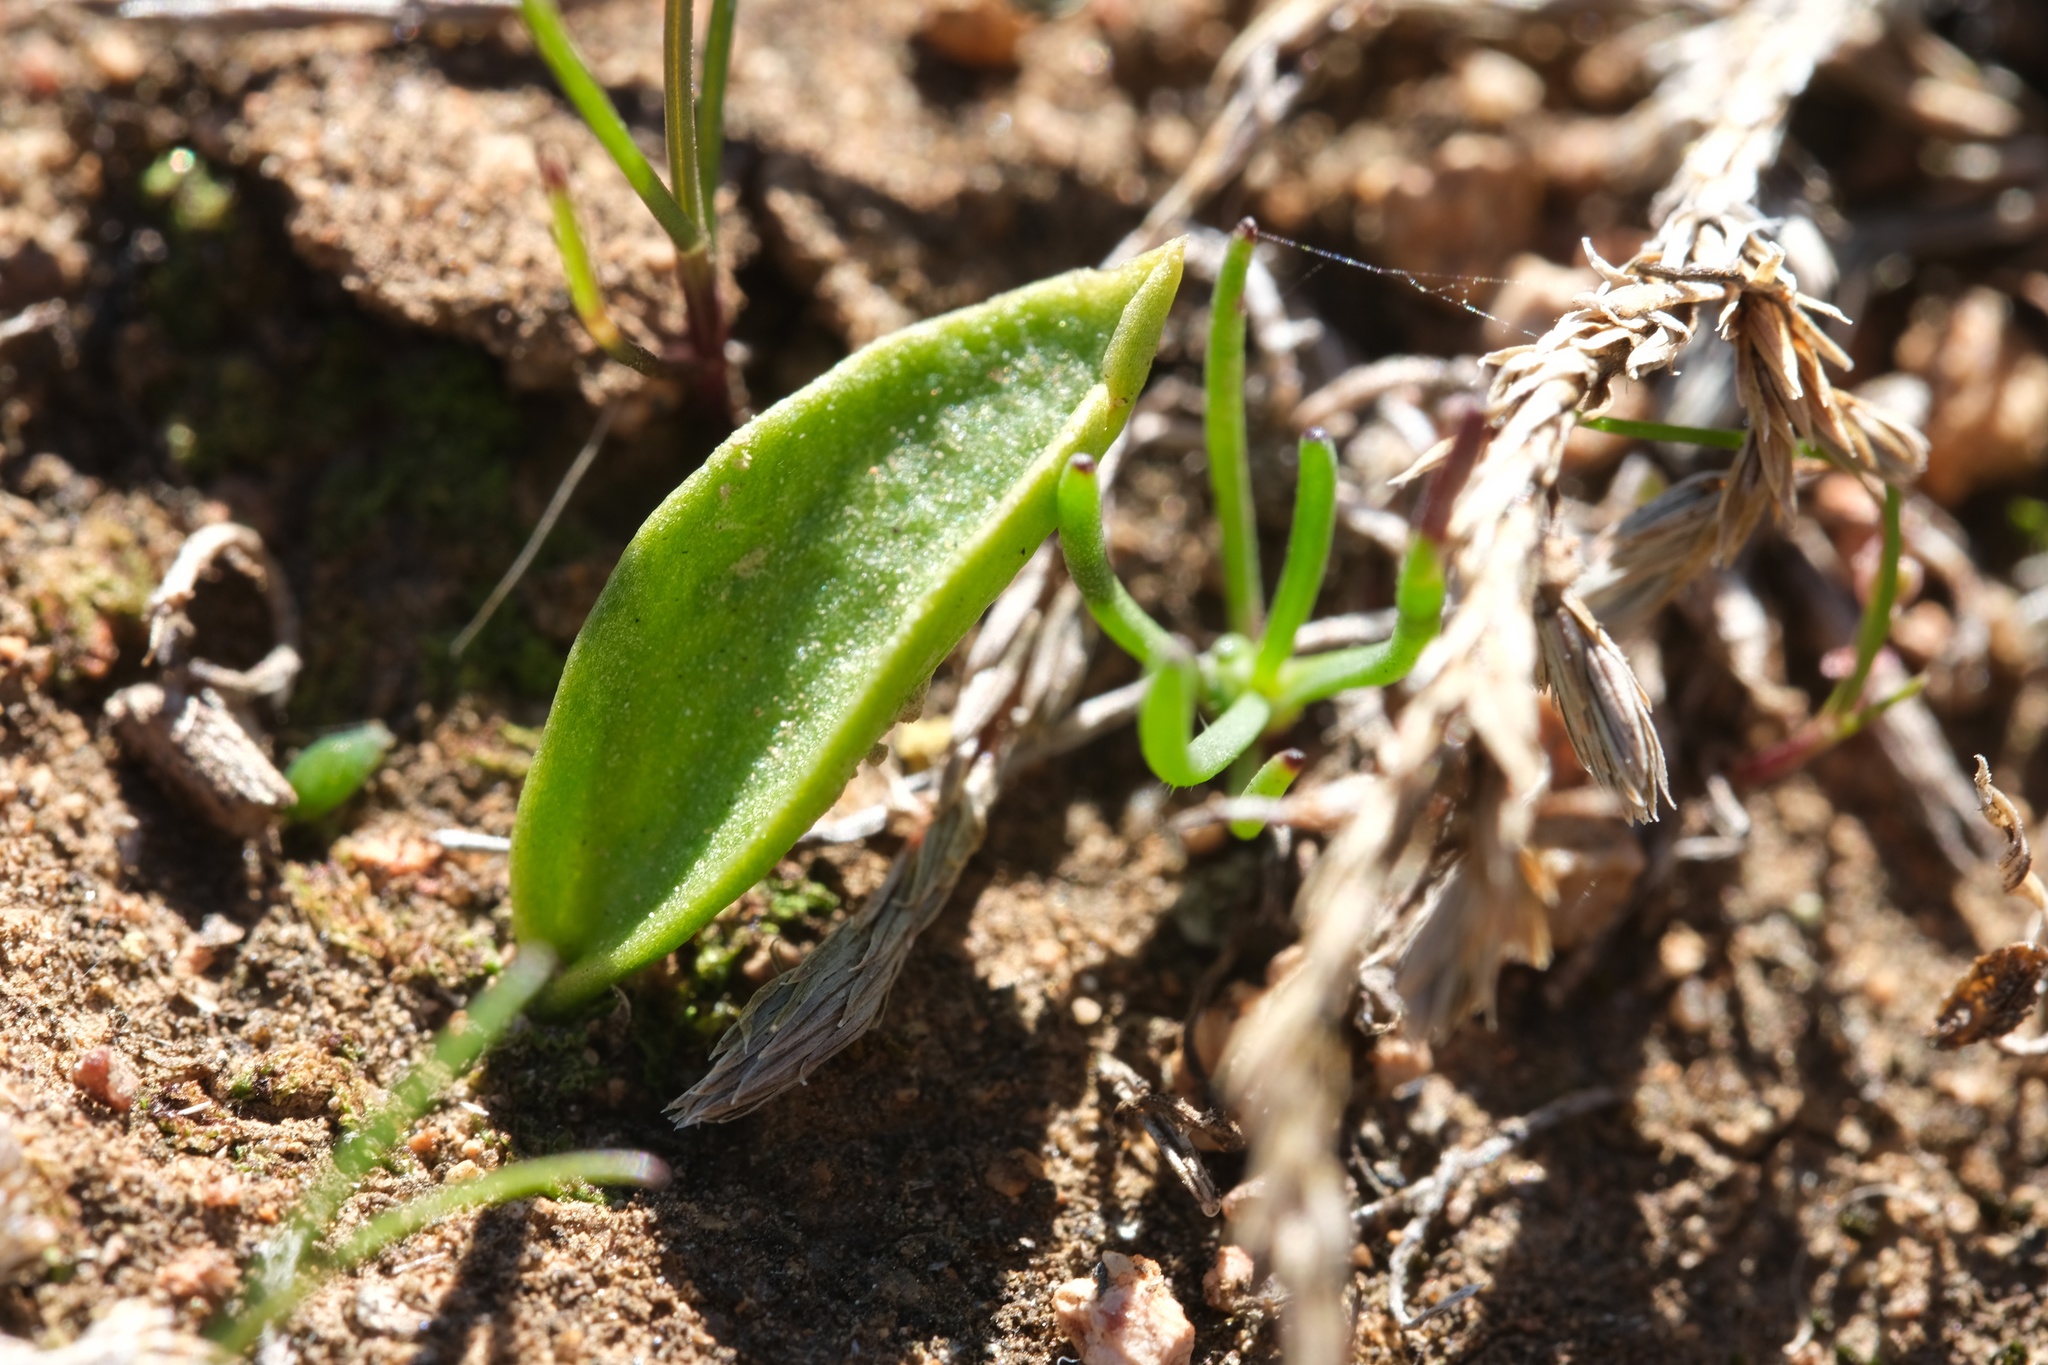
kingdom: Plantae
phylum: Tracheophyta
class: Polypodiopsida
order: Ophioglossales
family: Ophioglossaceae
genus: Ophioglossum
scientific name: Ophioglossum californicum
